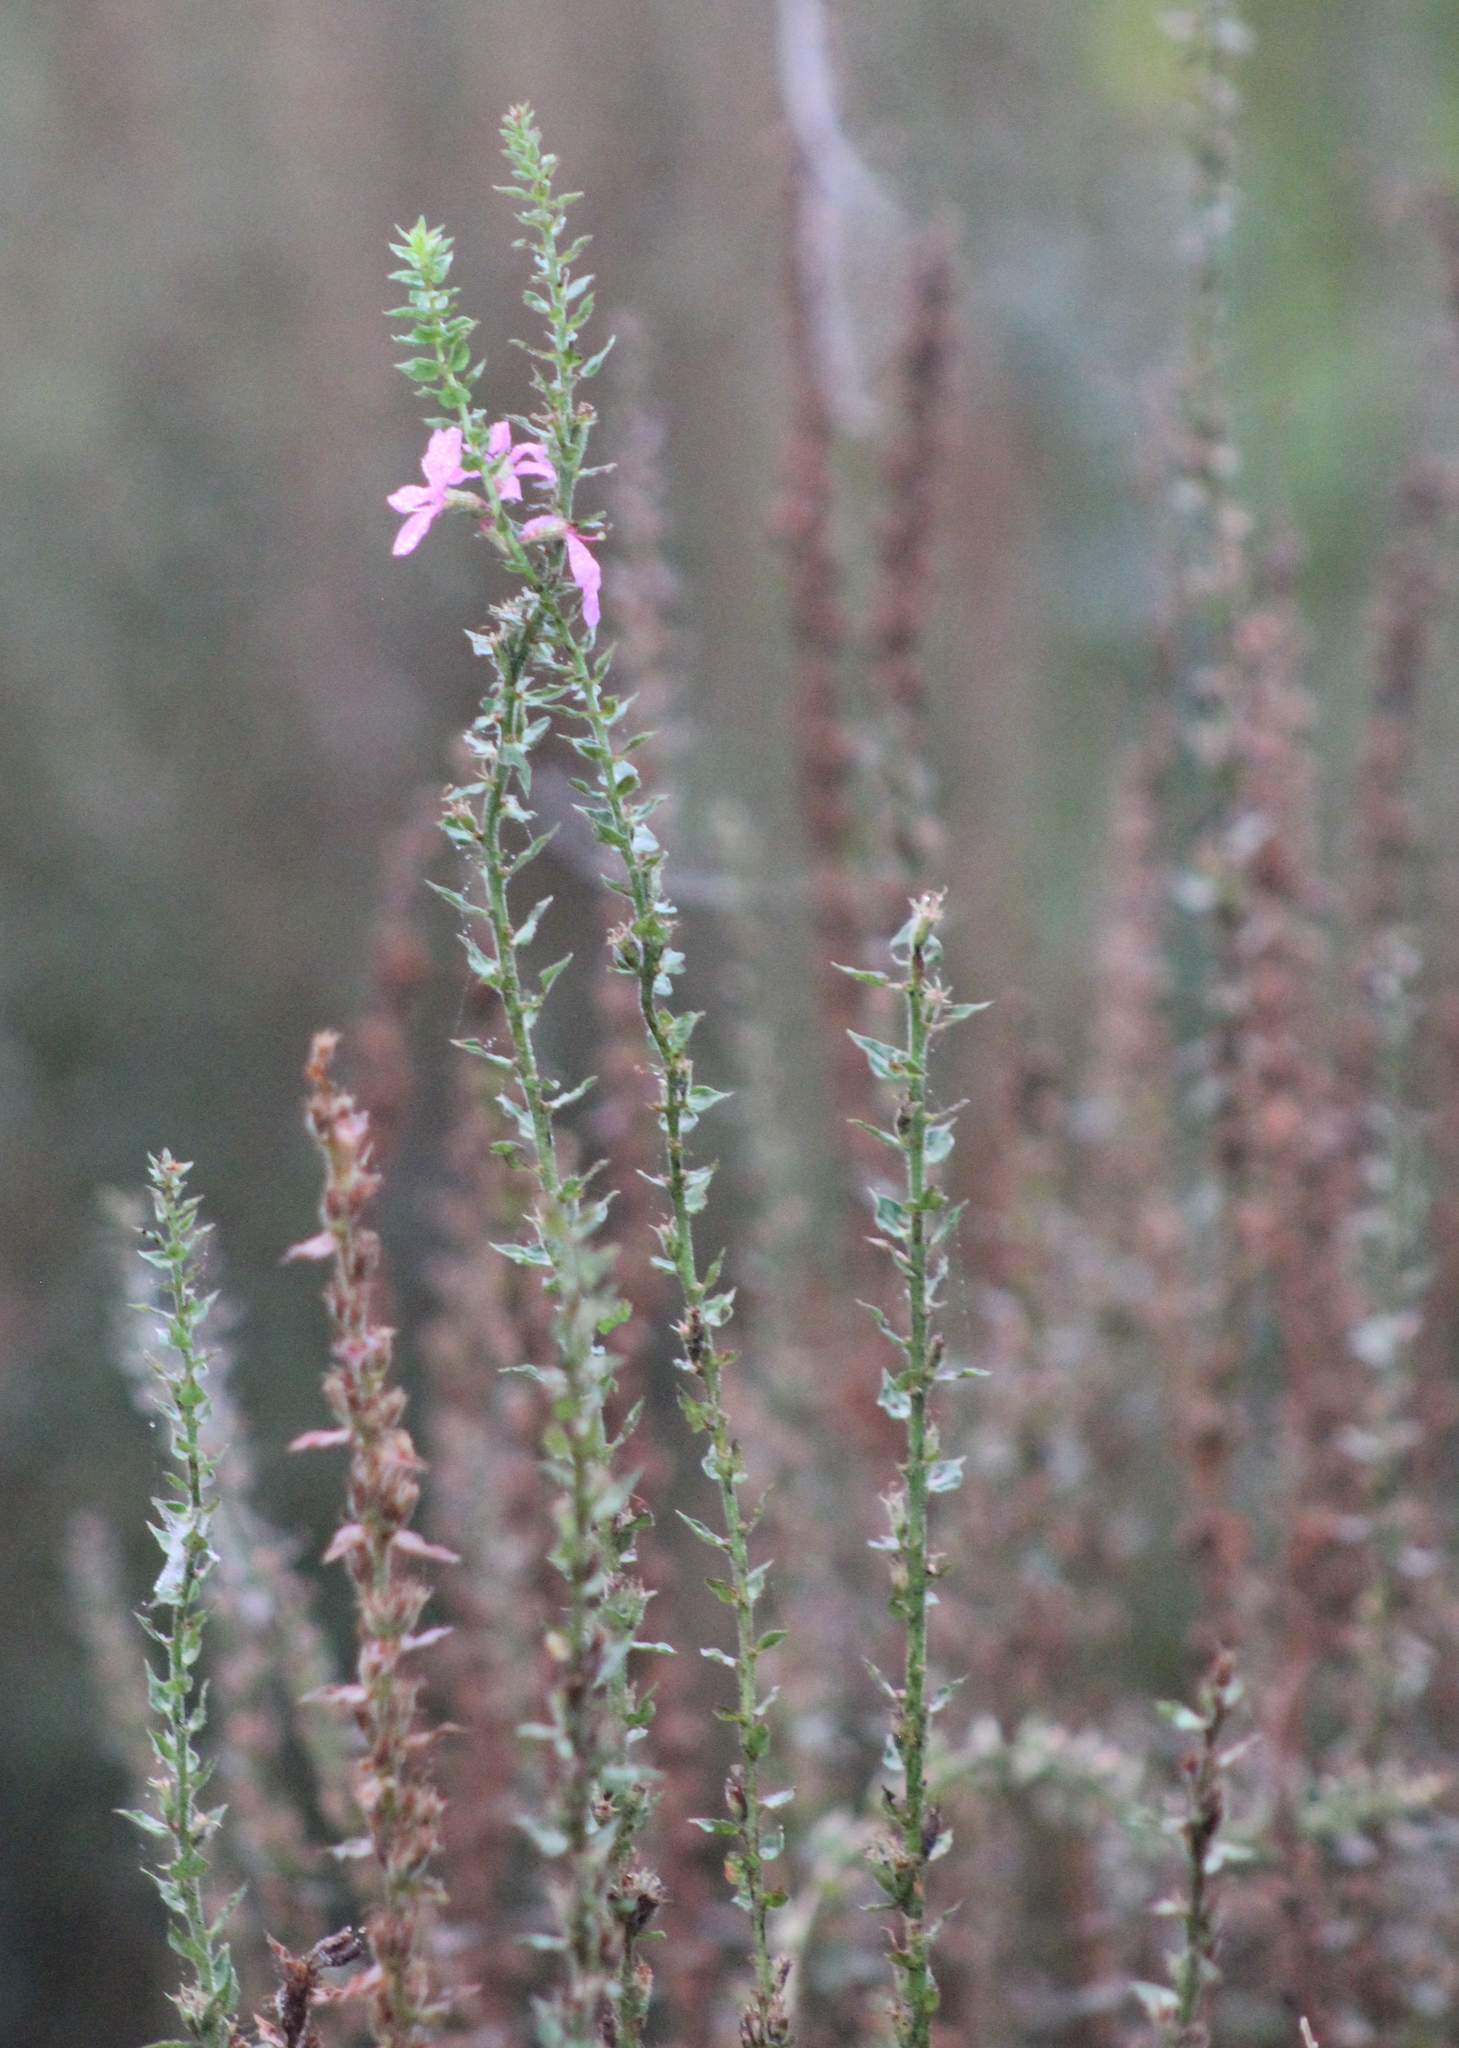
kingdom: Plantae
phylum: Tracheophyta
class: Magnoliopsida
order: Myrtales
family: Lythraceae
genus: Lythrum
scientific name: Lythrum salicaria
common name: Purple loosestrife
